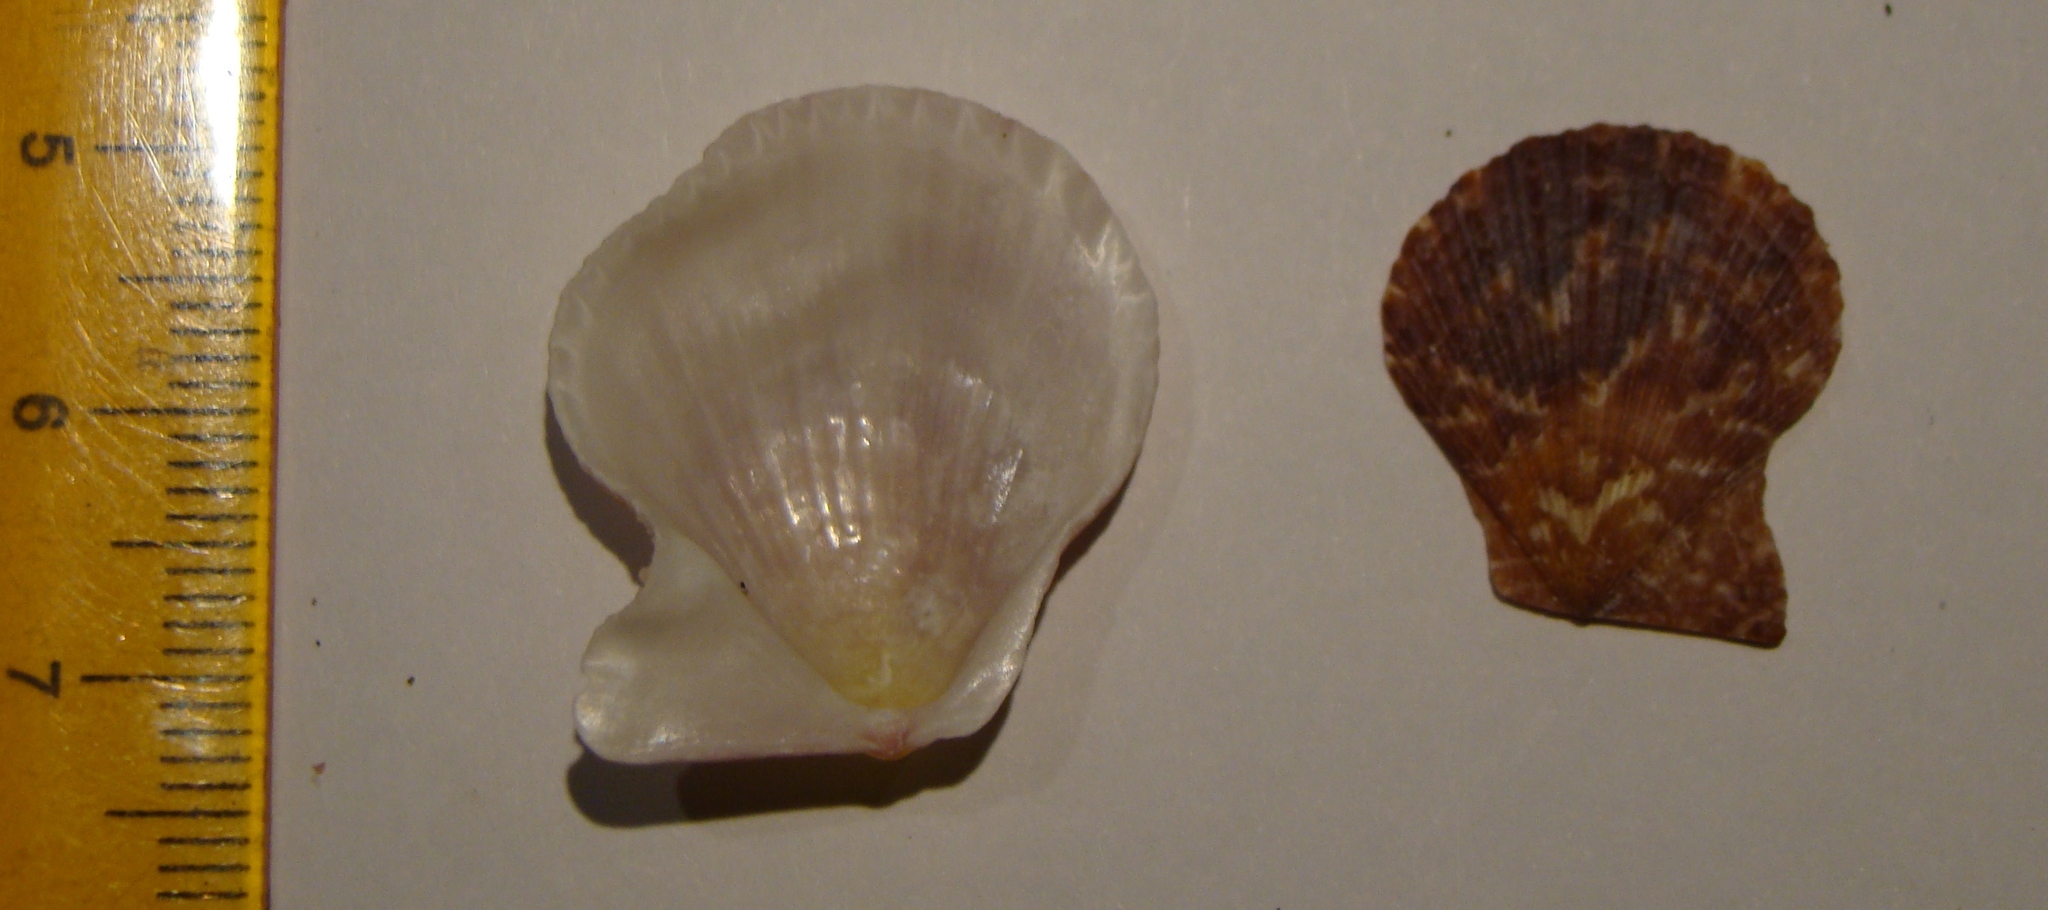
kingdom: Animalia
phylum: Mollusca
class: Bivalvia
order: Pectinida
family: Pectinidae
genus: Talochlamys
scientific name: Talochlamys zelandiae
